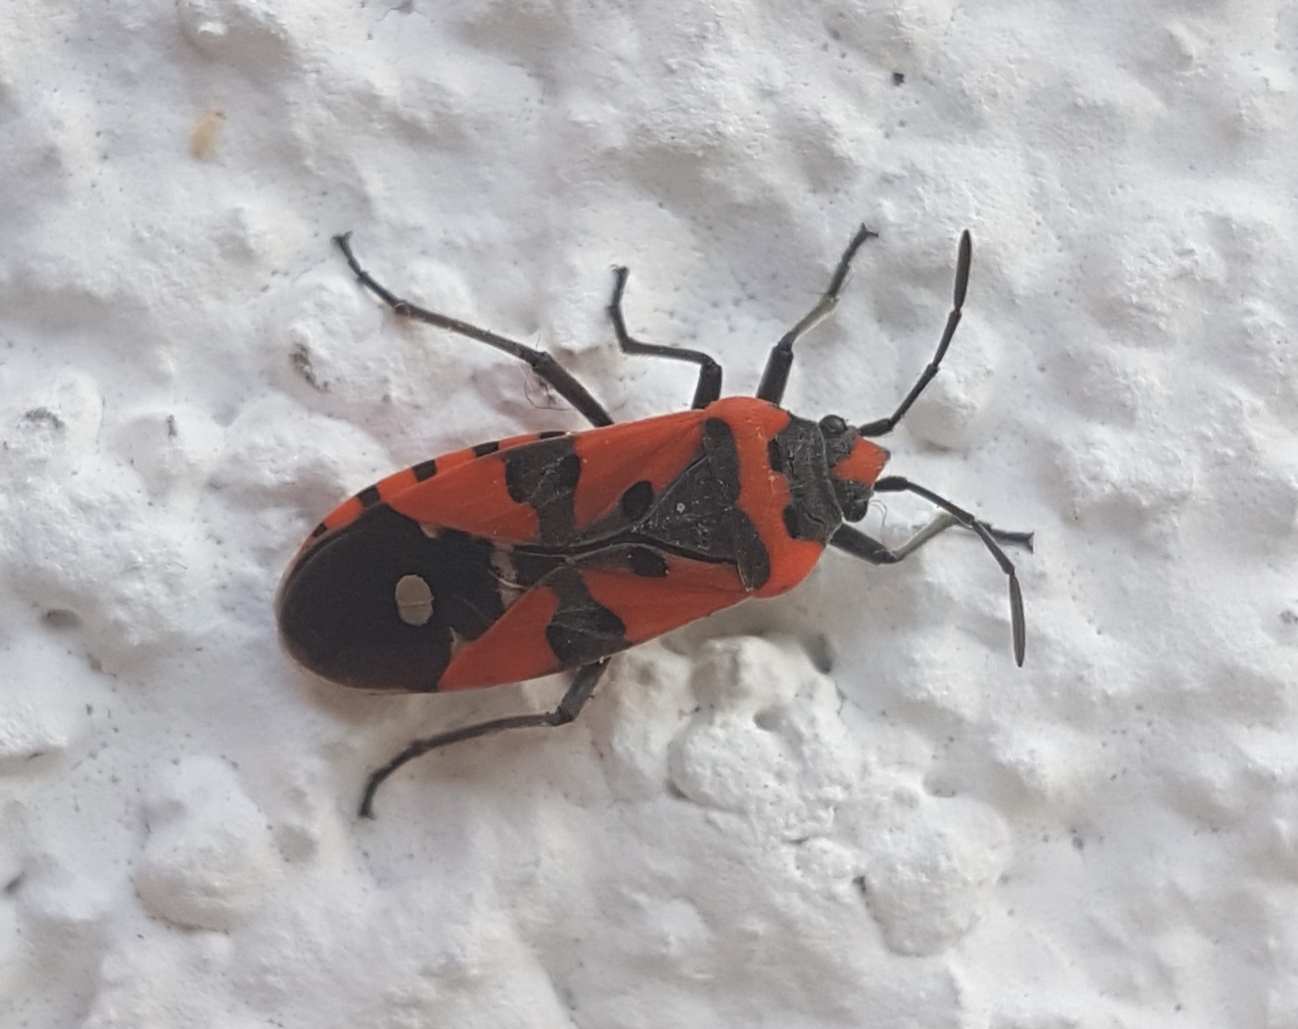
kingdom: Animalia
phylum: Arthropoda
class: Insecta
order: Hemiptera
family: Lygaeidae
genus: Lygaeus
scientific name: Lygaeus equestris
